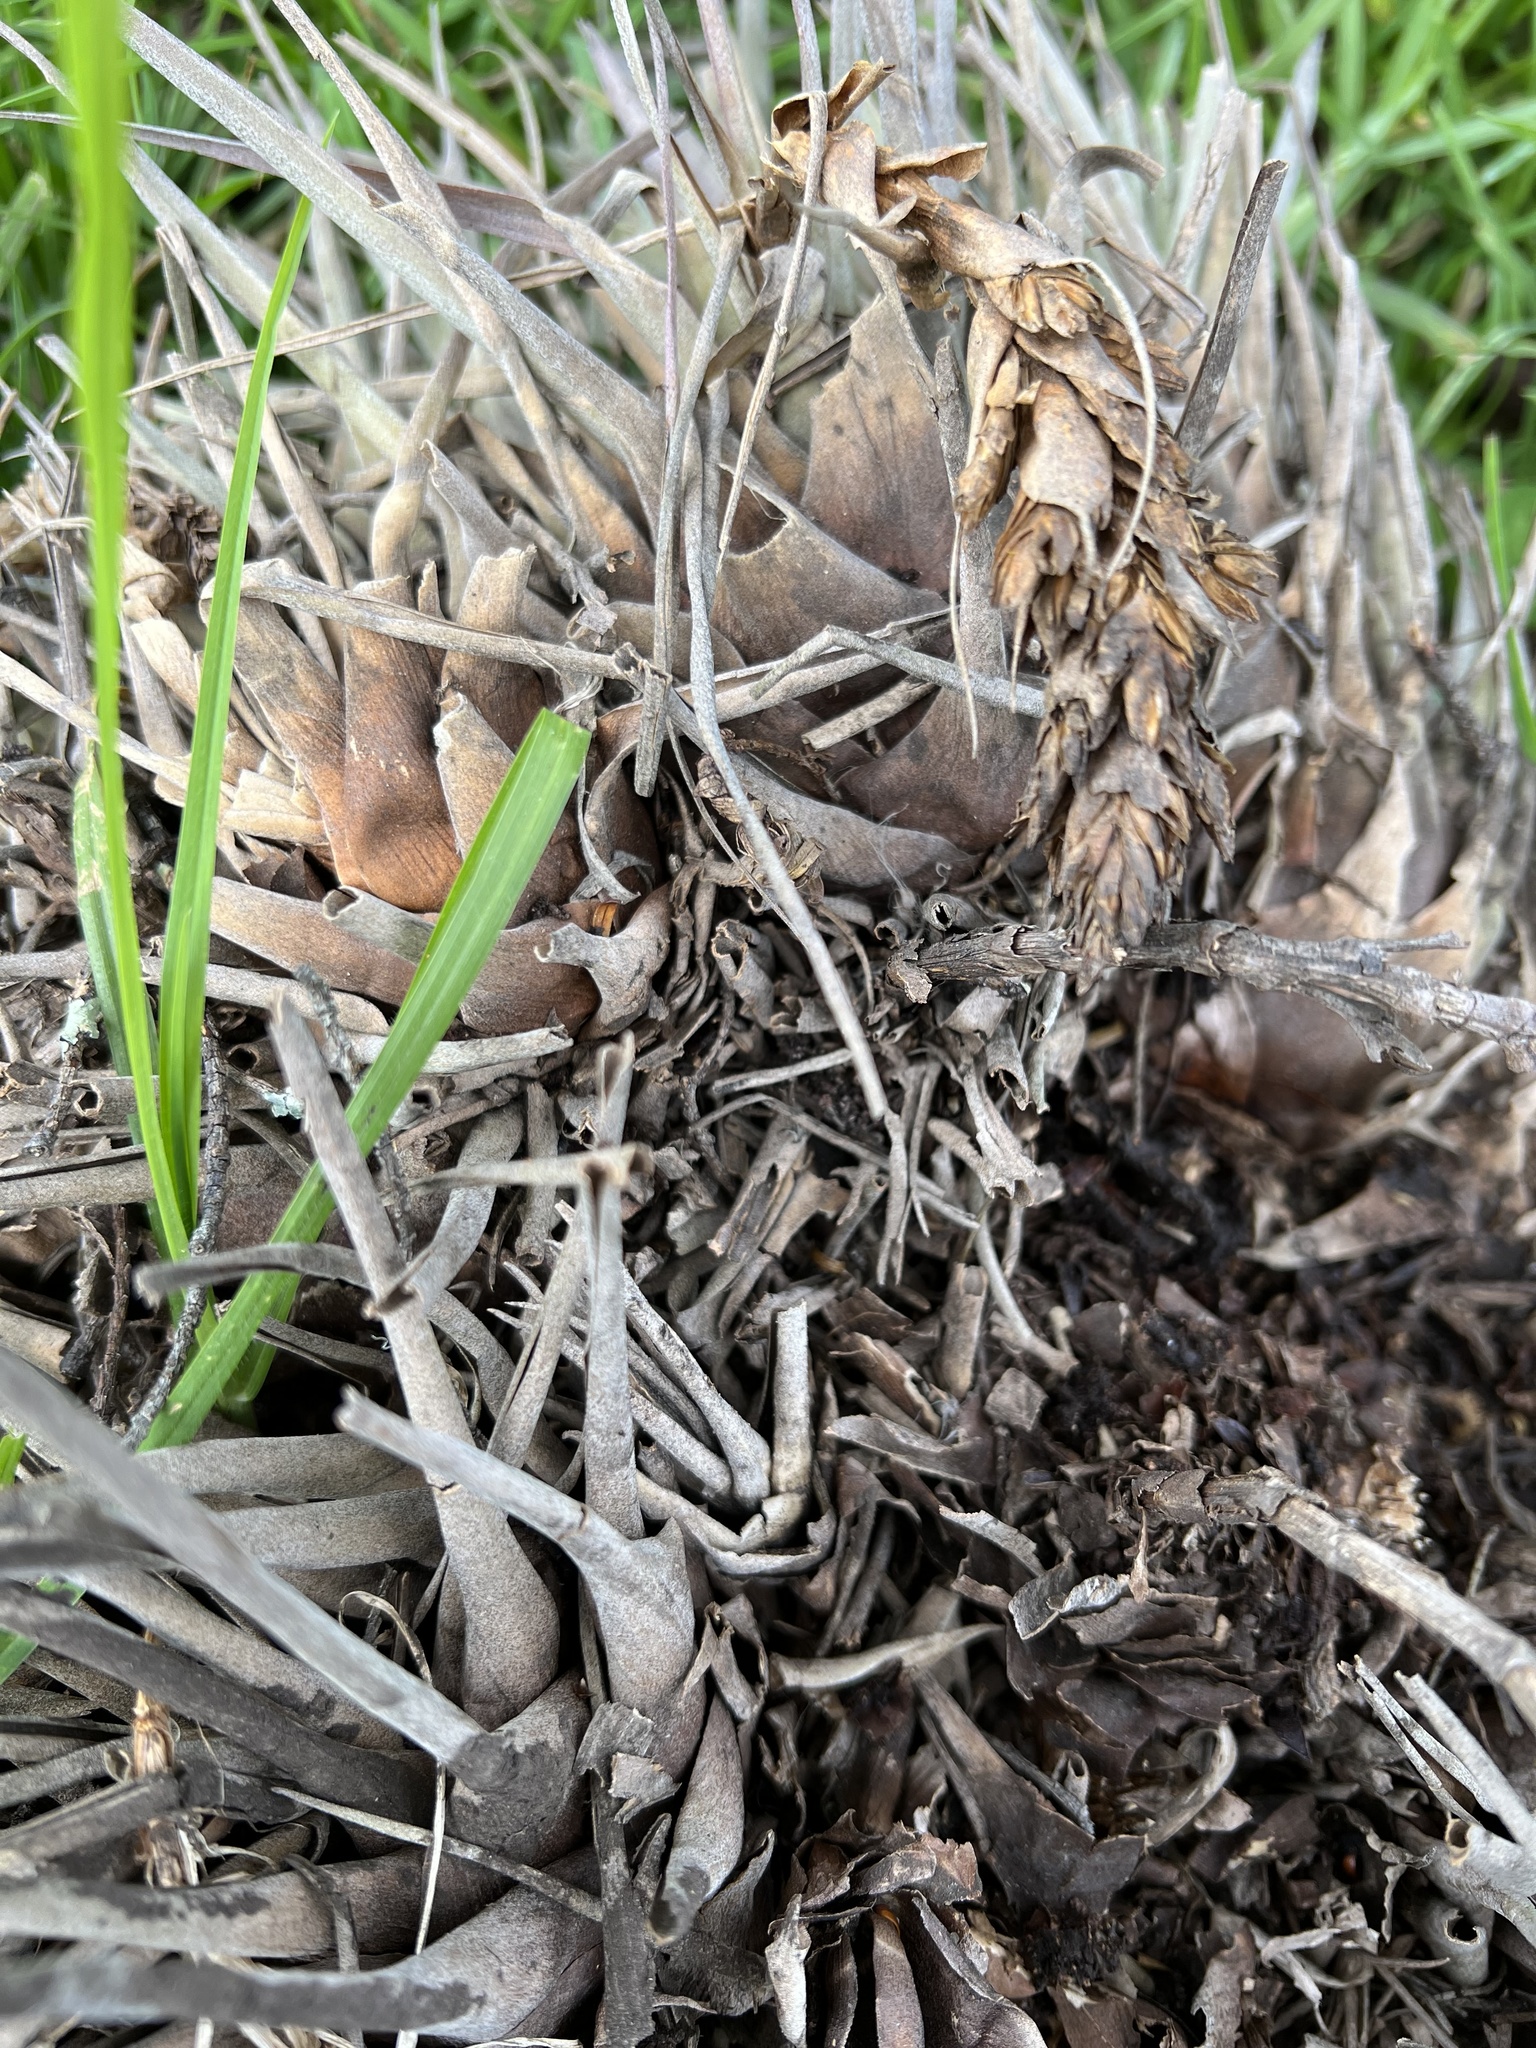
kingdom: Plantae
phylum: Tracheophyta
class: Liliopsida
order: Poales
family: Bromeliaceae
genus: Tillandsia
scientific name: Tillandsia fragrans
